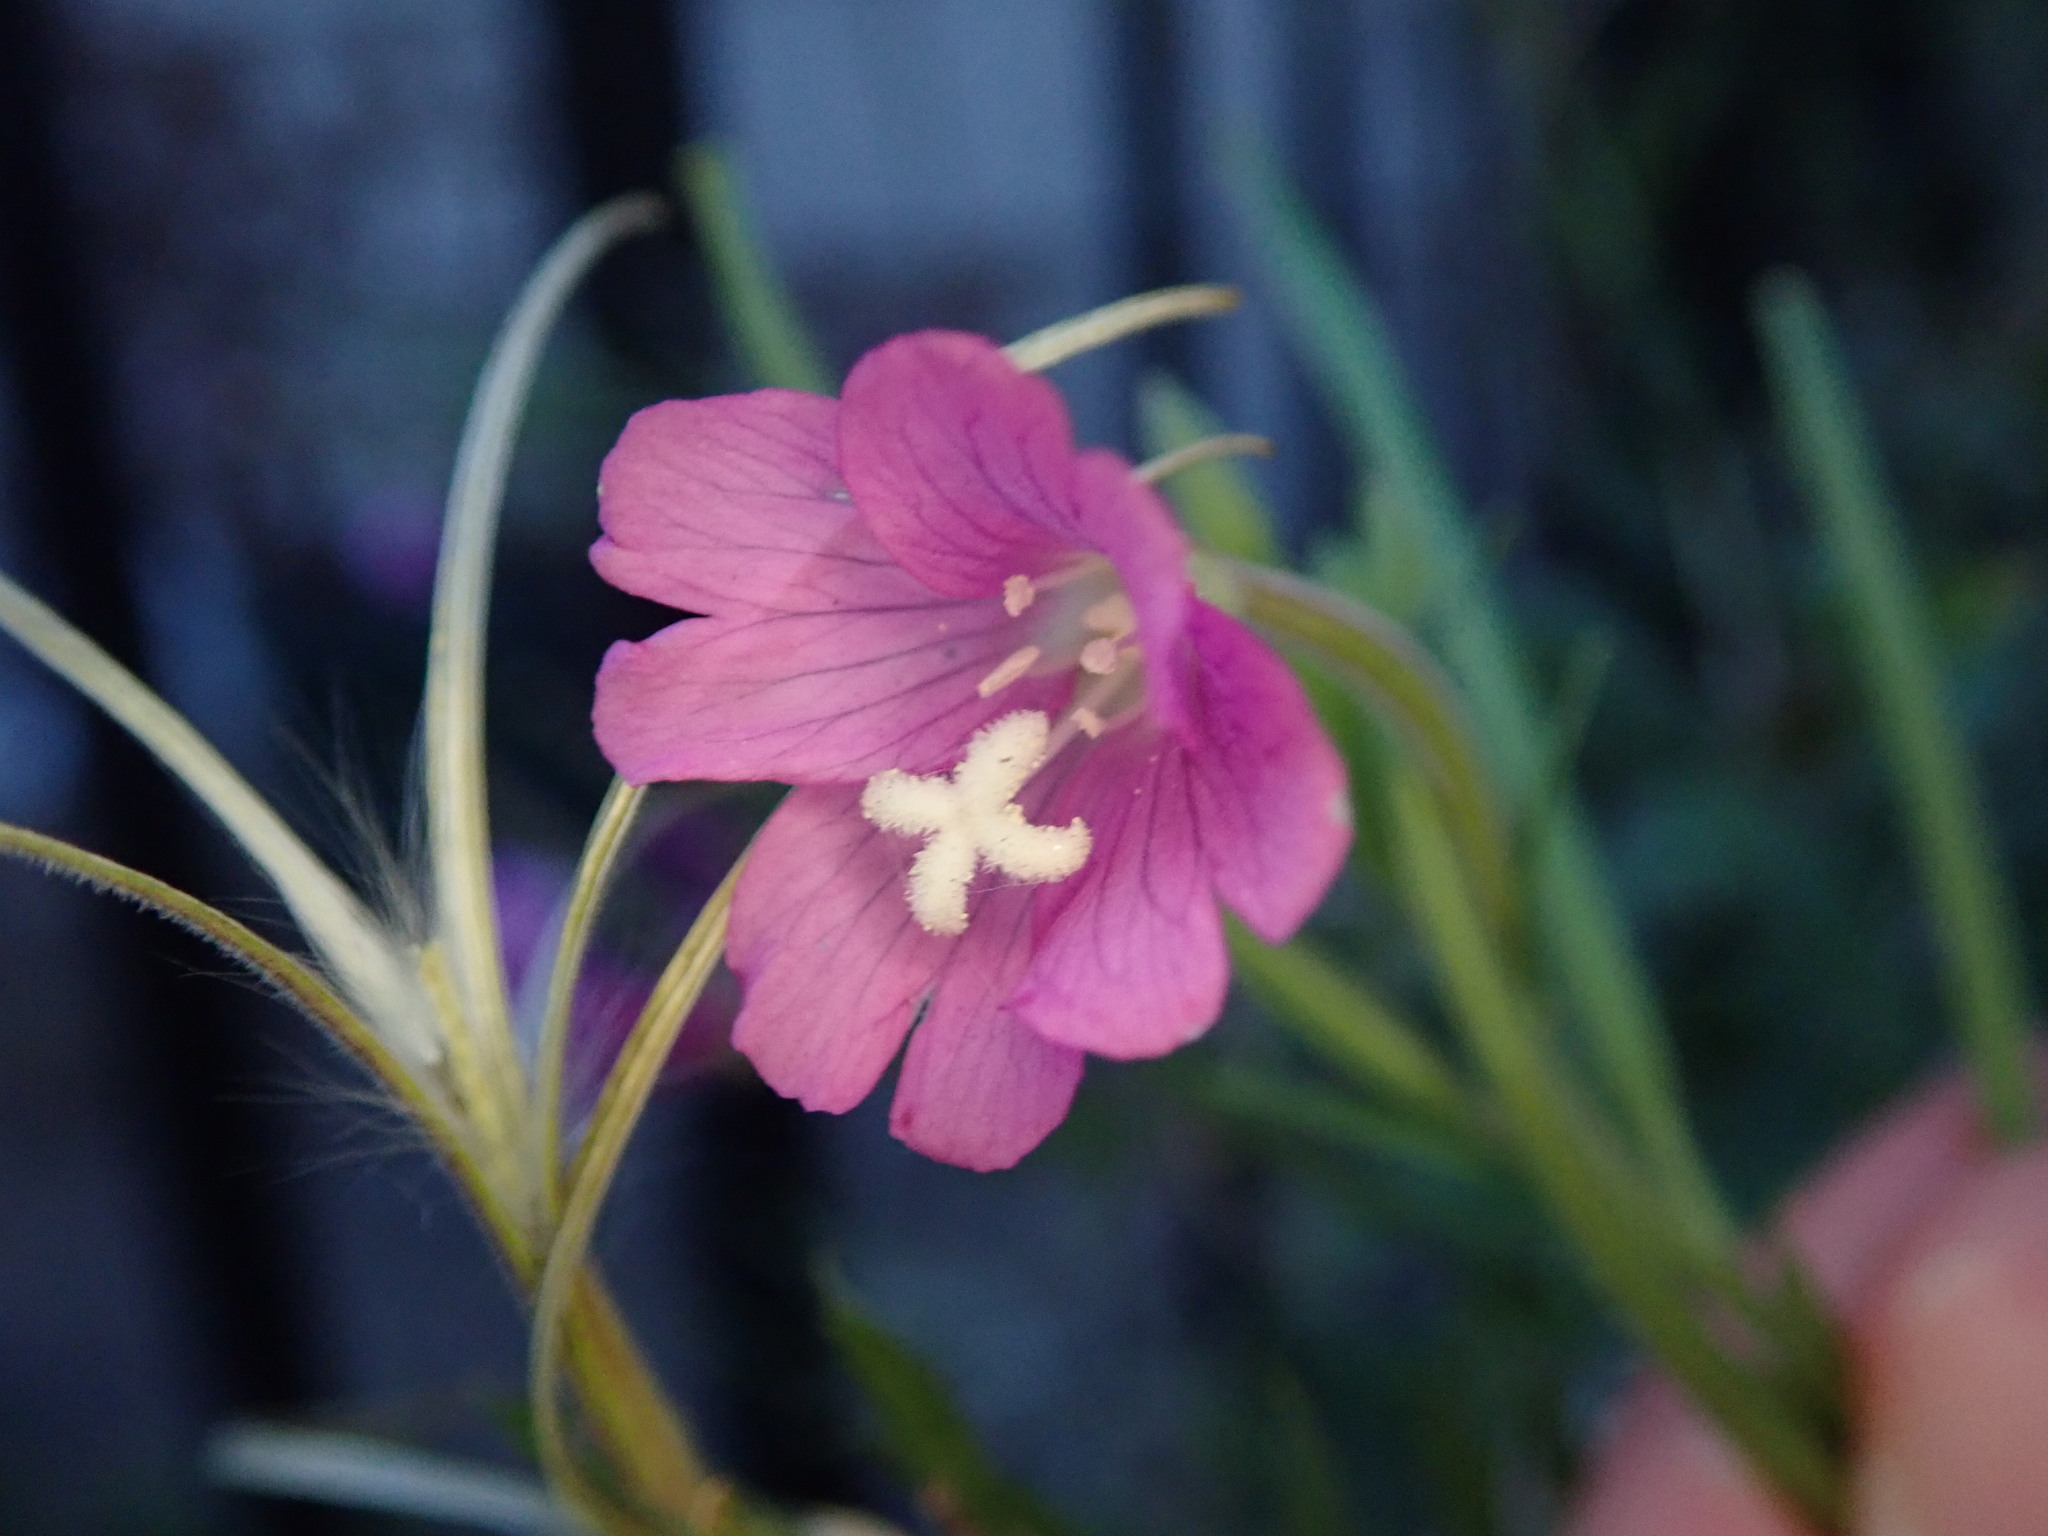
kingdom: Plantae
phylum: Tracheophyta
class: Magnoliopsida
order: Myrtales
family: Onagraceae
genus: Epilobium
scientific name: Epilobium hirsutum
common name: Great willowherb
